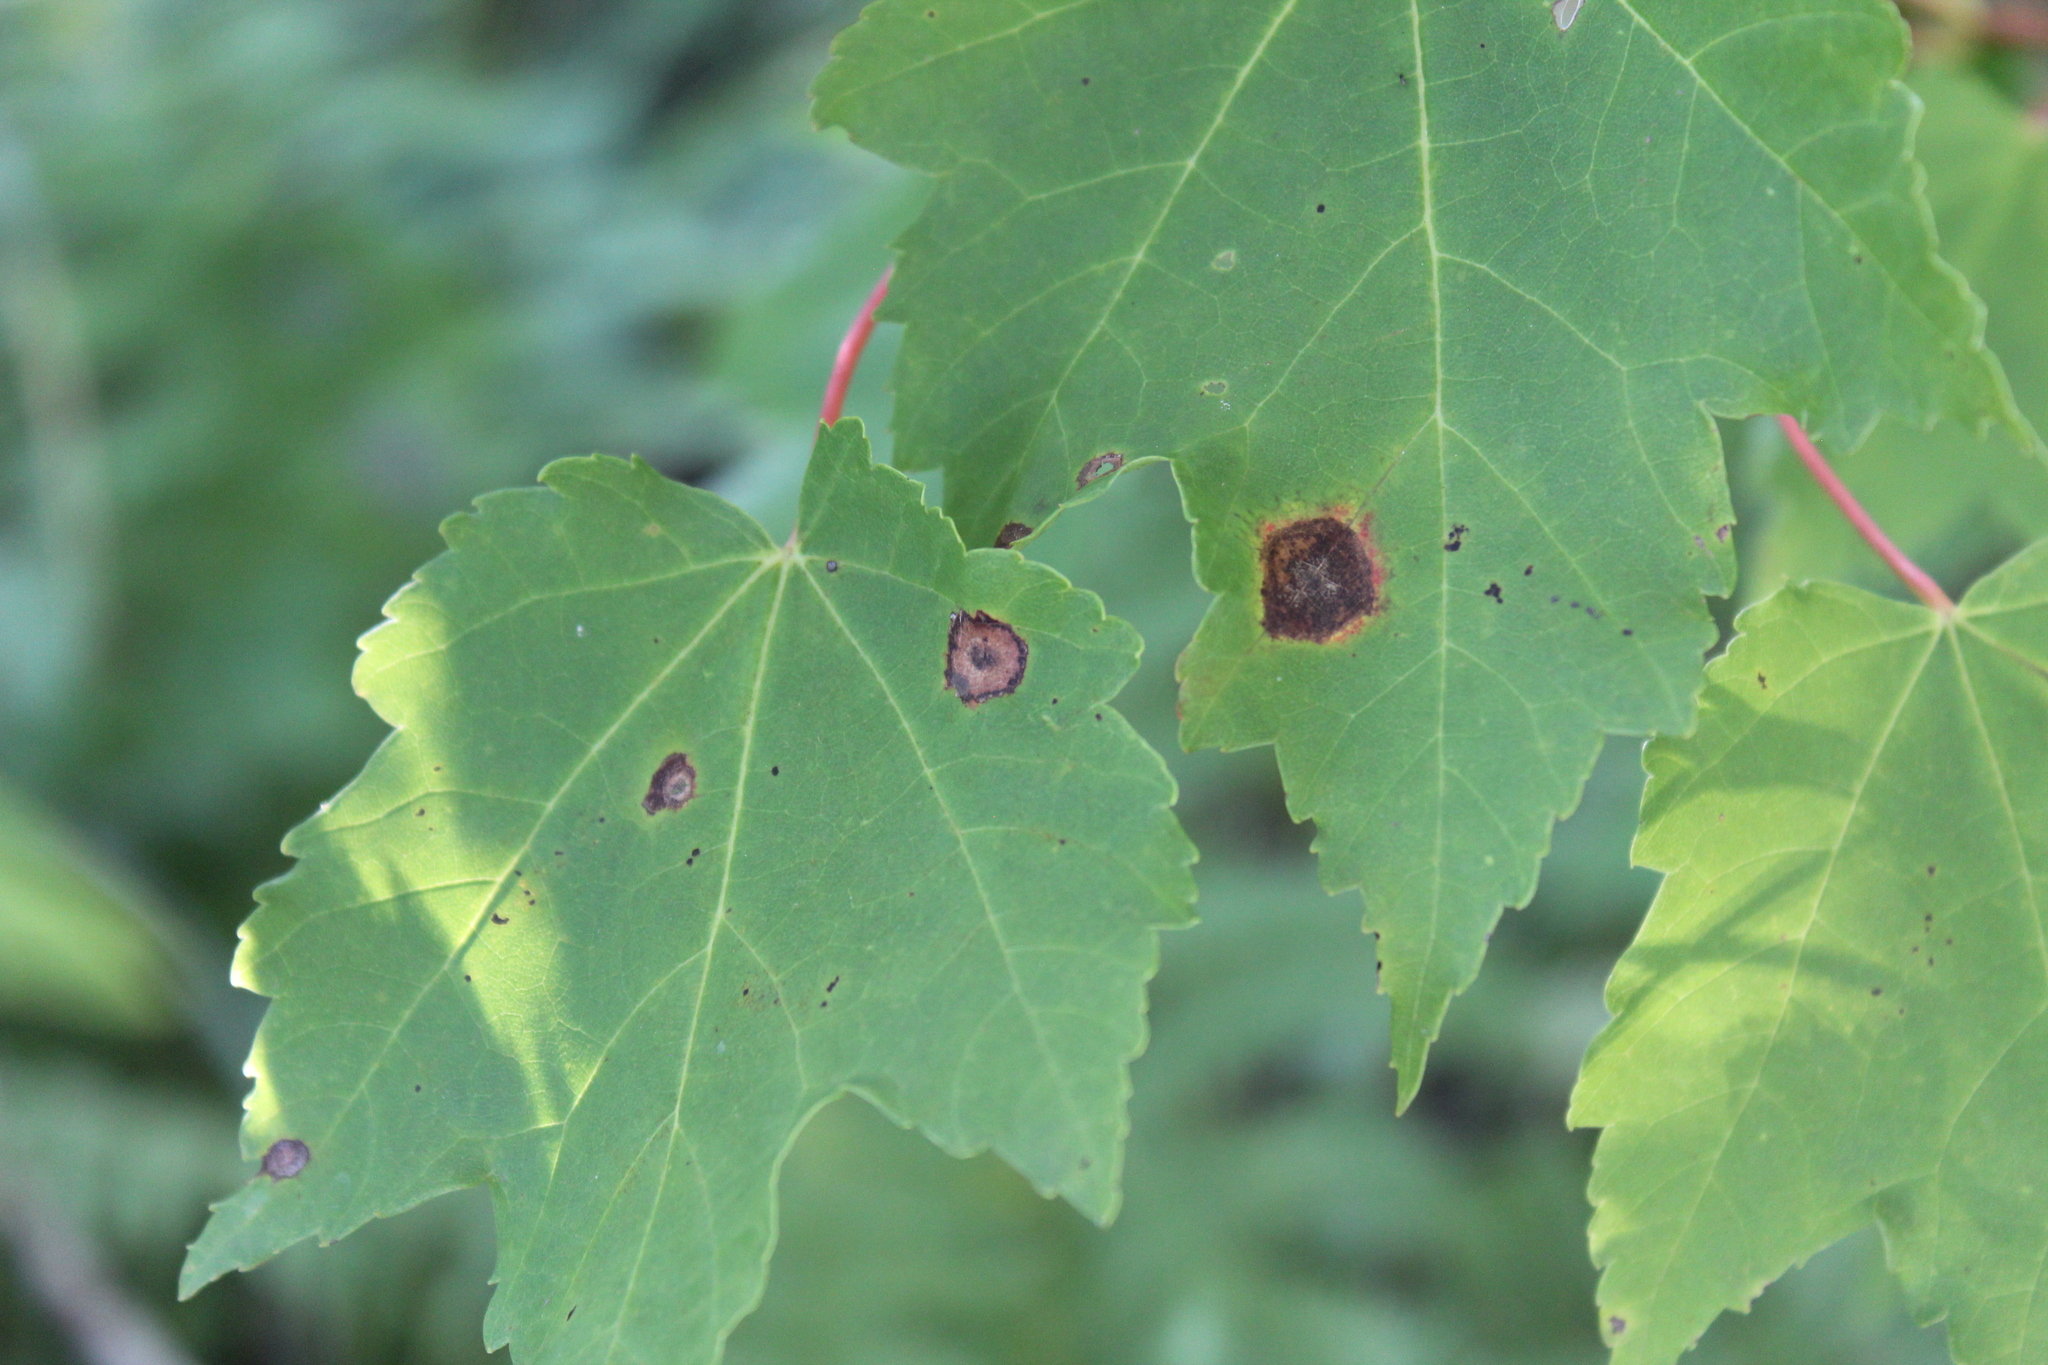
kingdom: Plantae
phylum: Tracheophyta
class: Magnoliopsida
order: Sapindales
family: Sapindaceae
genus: Acer
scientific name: Acer rubrum
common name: Red maple
